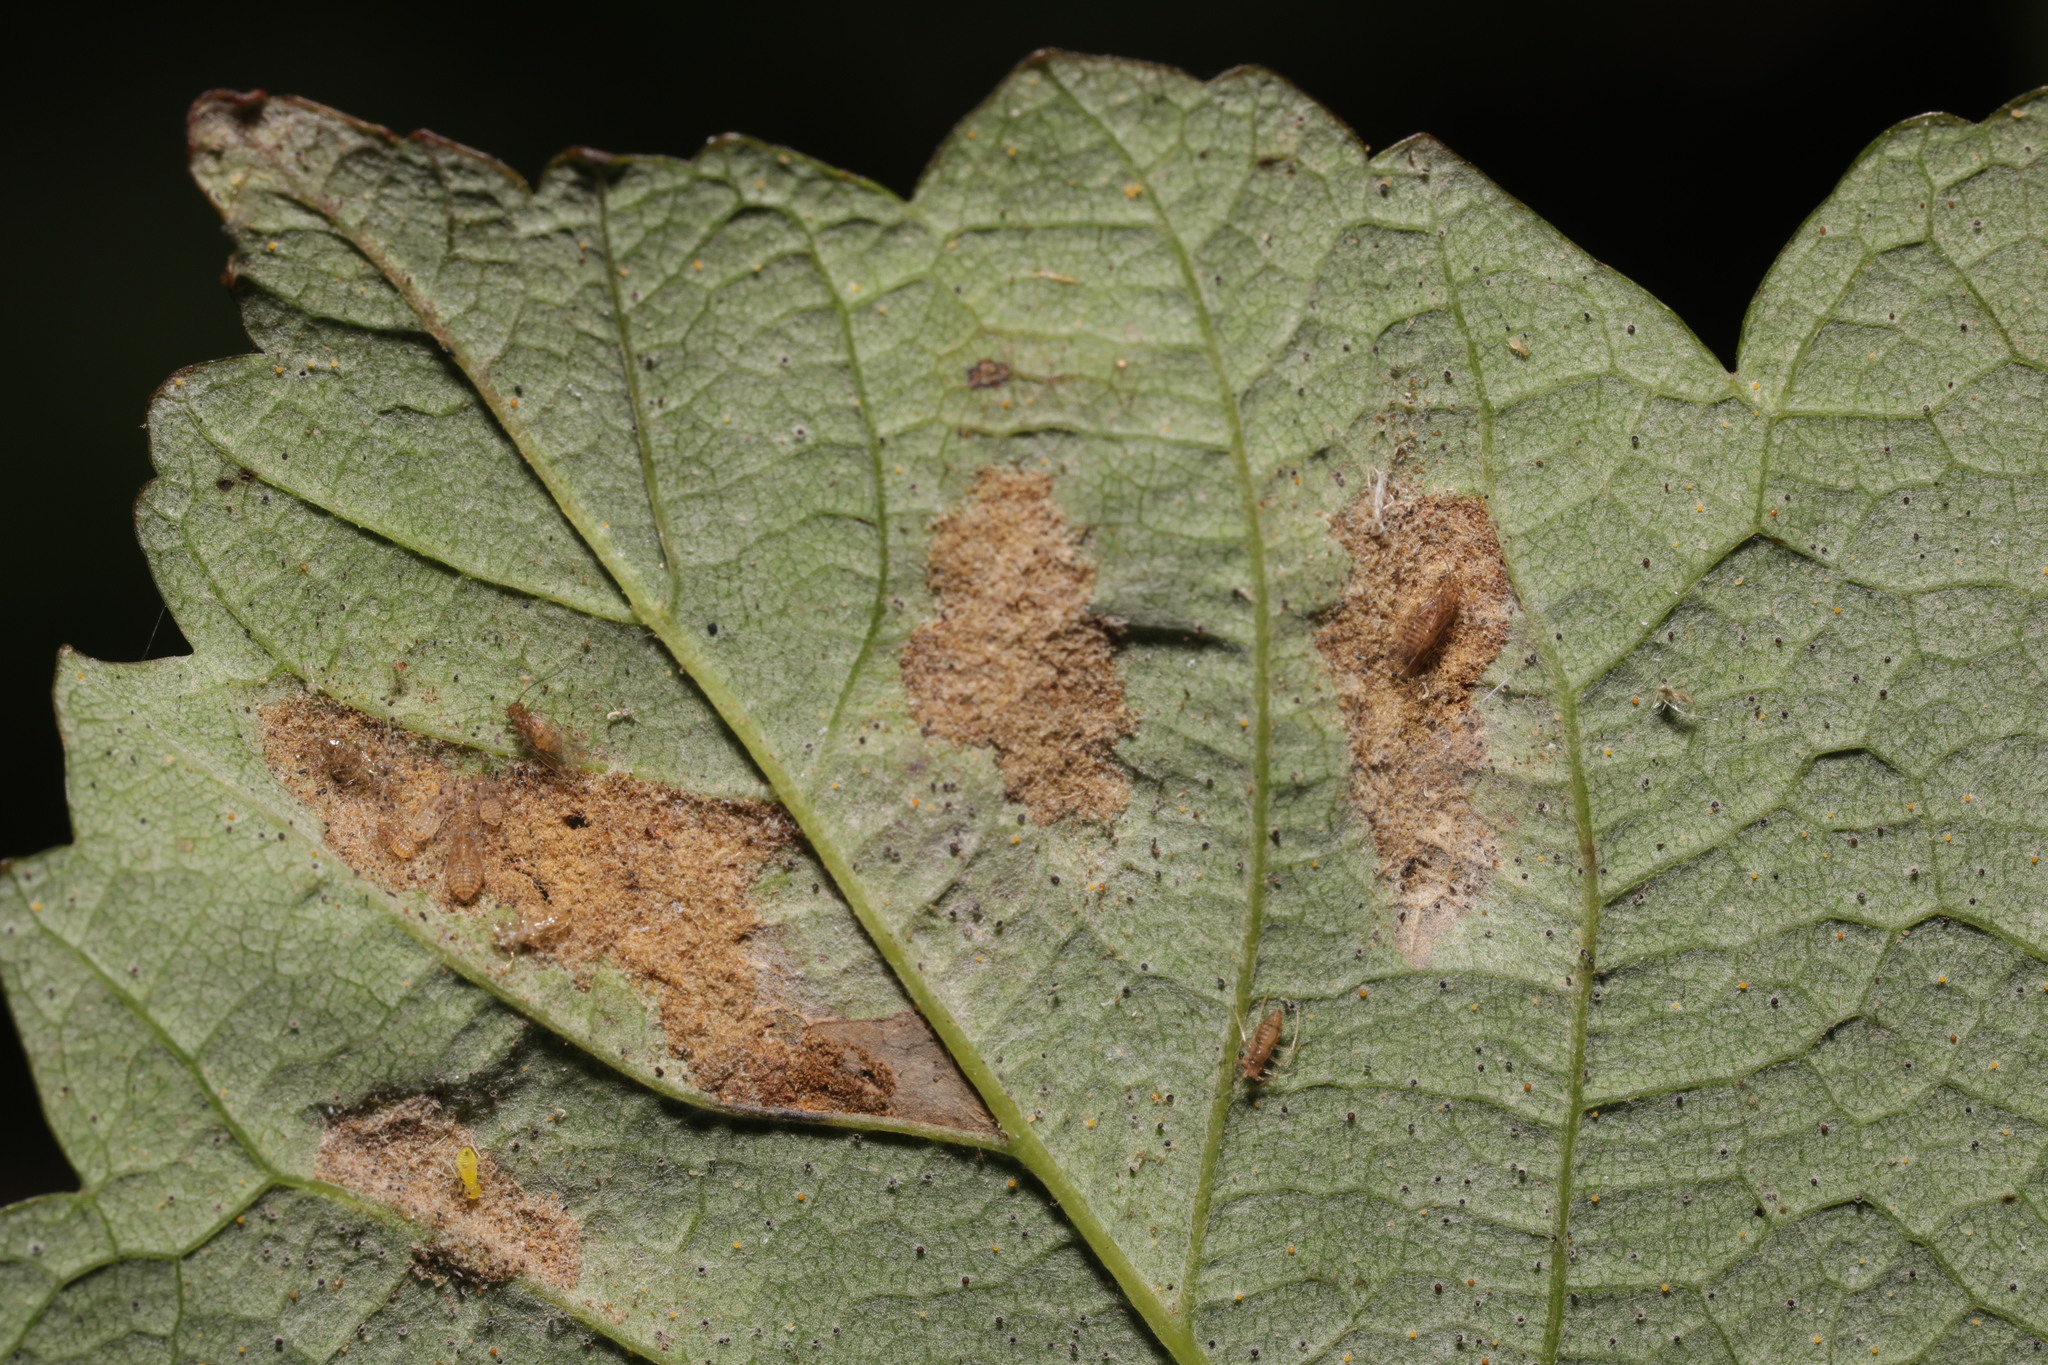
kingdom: Animalia
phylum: Arthropoda
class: Arachnida
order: Trombidiformes
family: Eriophyidae
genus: Aceria
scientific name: Aceria pseudoplatani
